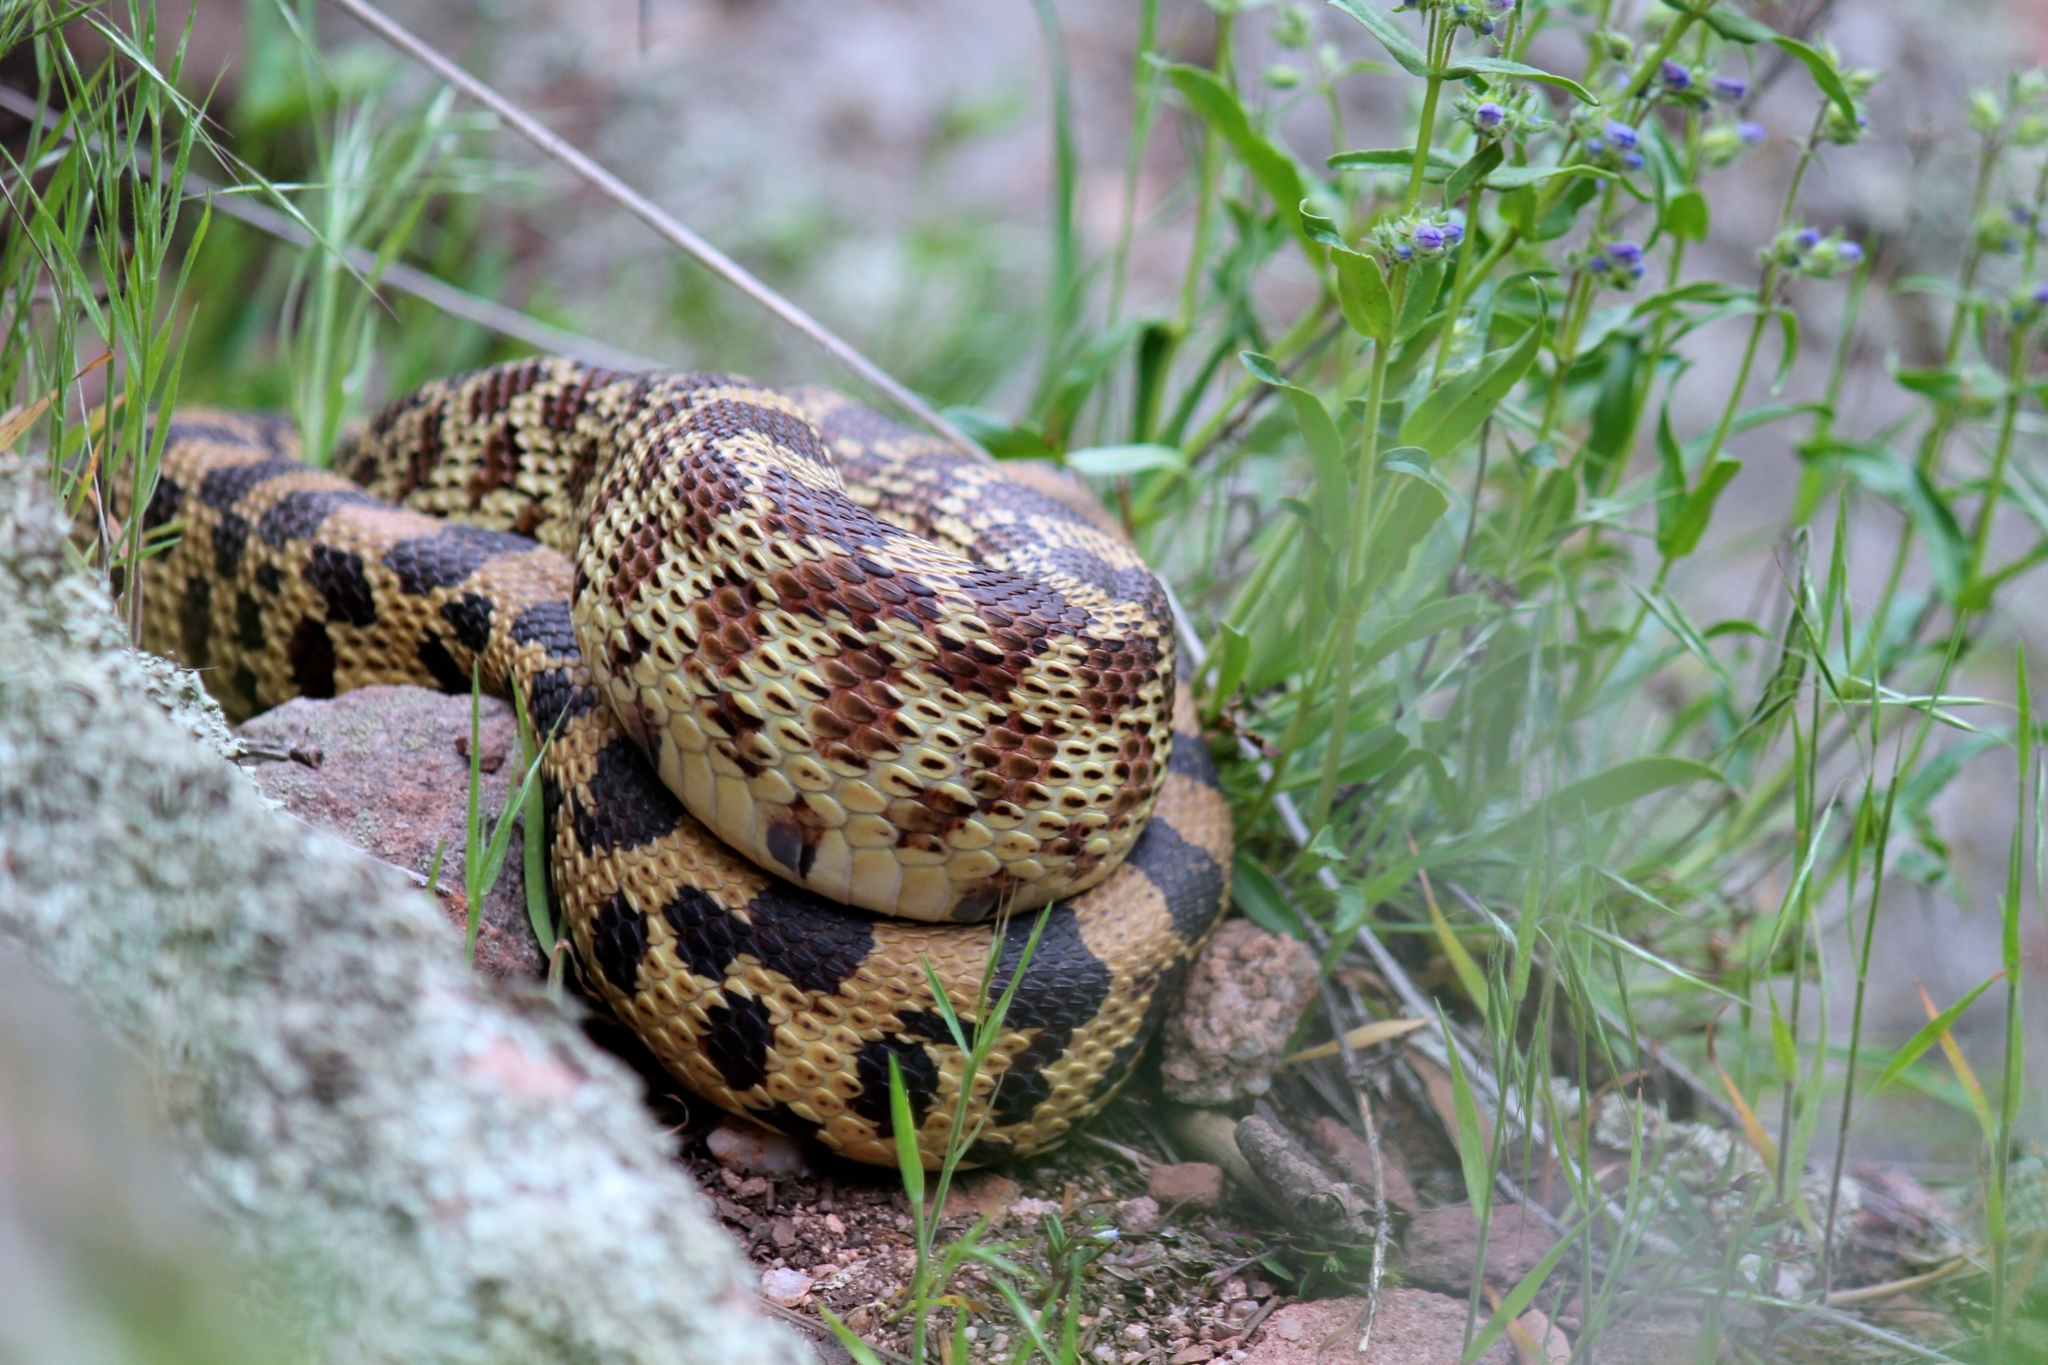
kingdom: Animalia
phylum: Chordata
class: Squamata
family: Colubridae
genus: Pituophis
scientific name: Pituophis catenifer
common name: Gopher snake
